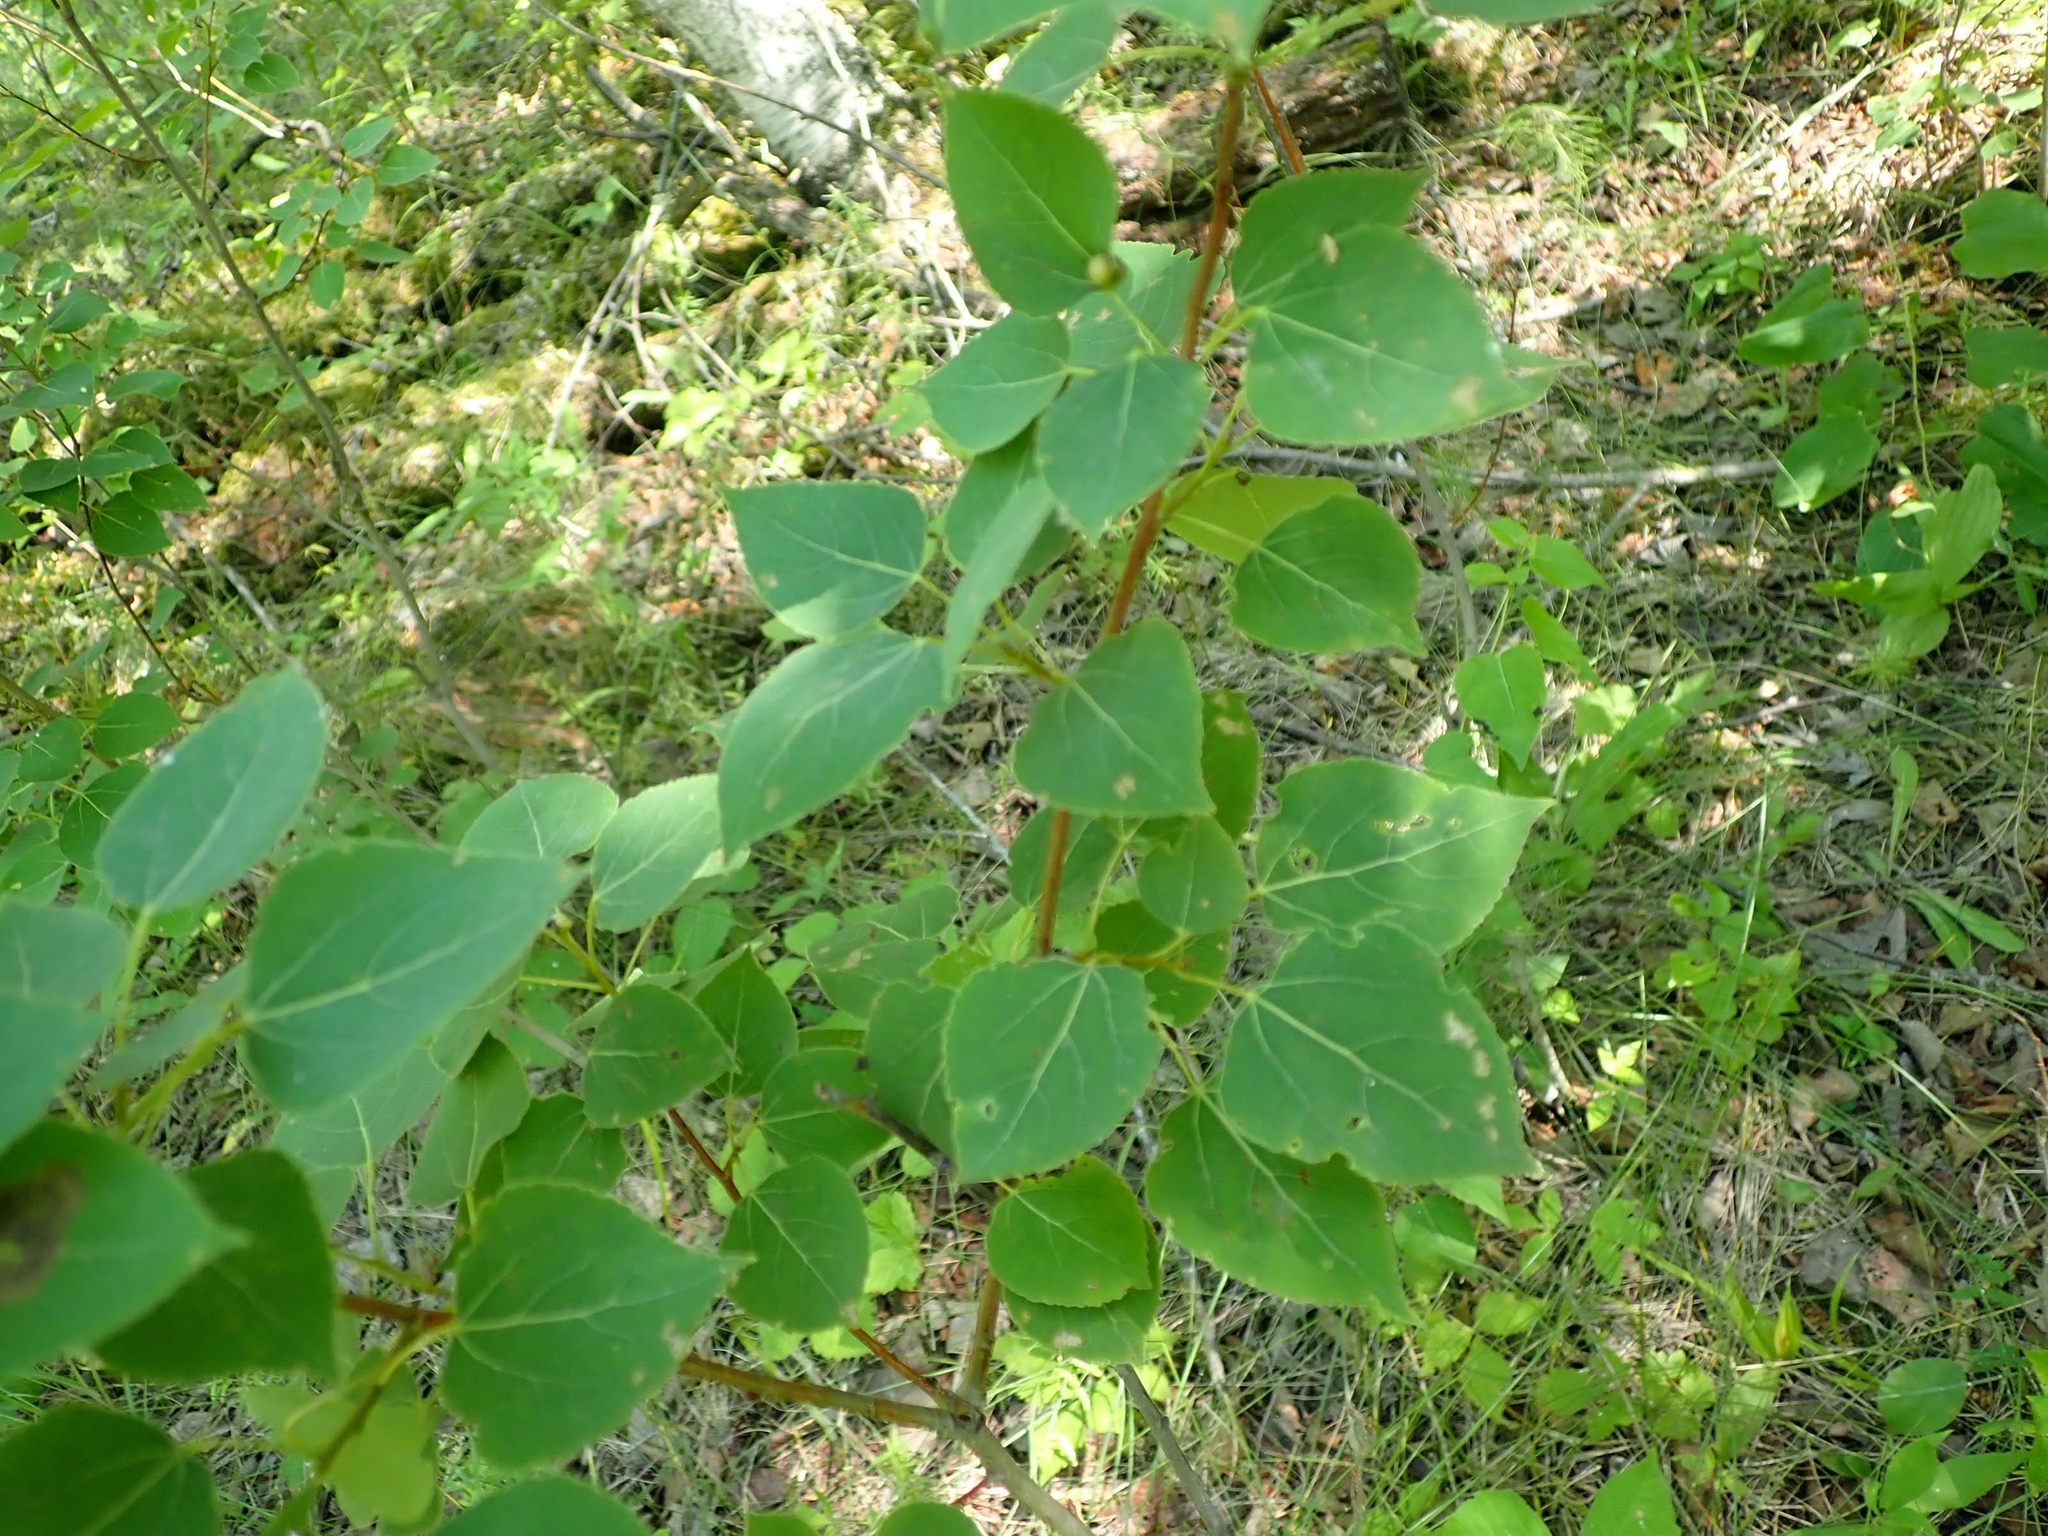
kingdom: Plantae
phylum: Tracheophyta
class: Magnoliopsida
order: Malpighiales
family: Salicaceae
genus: Populus
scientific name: Populus tremuloides
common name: Quaking aspen
